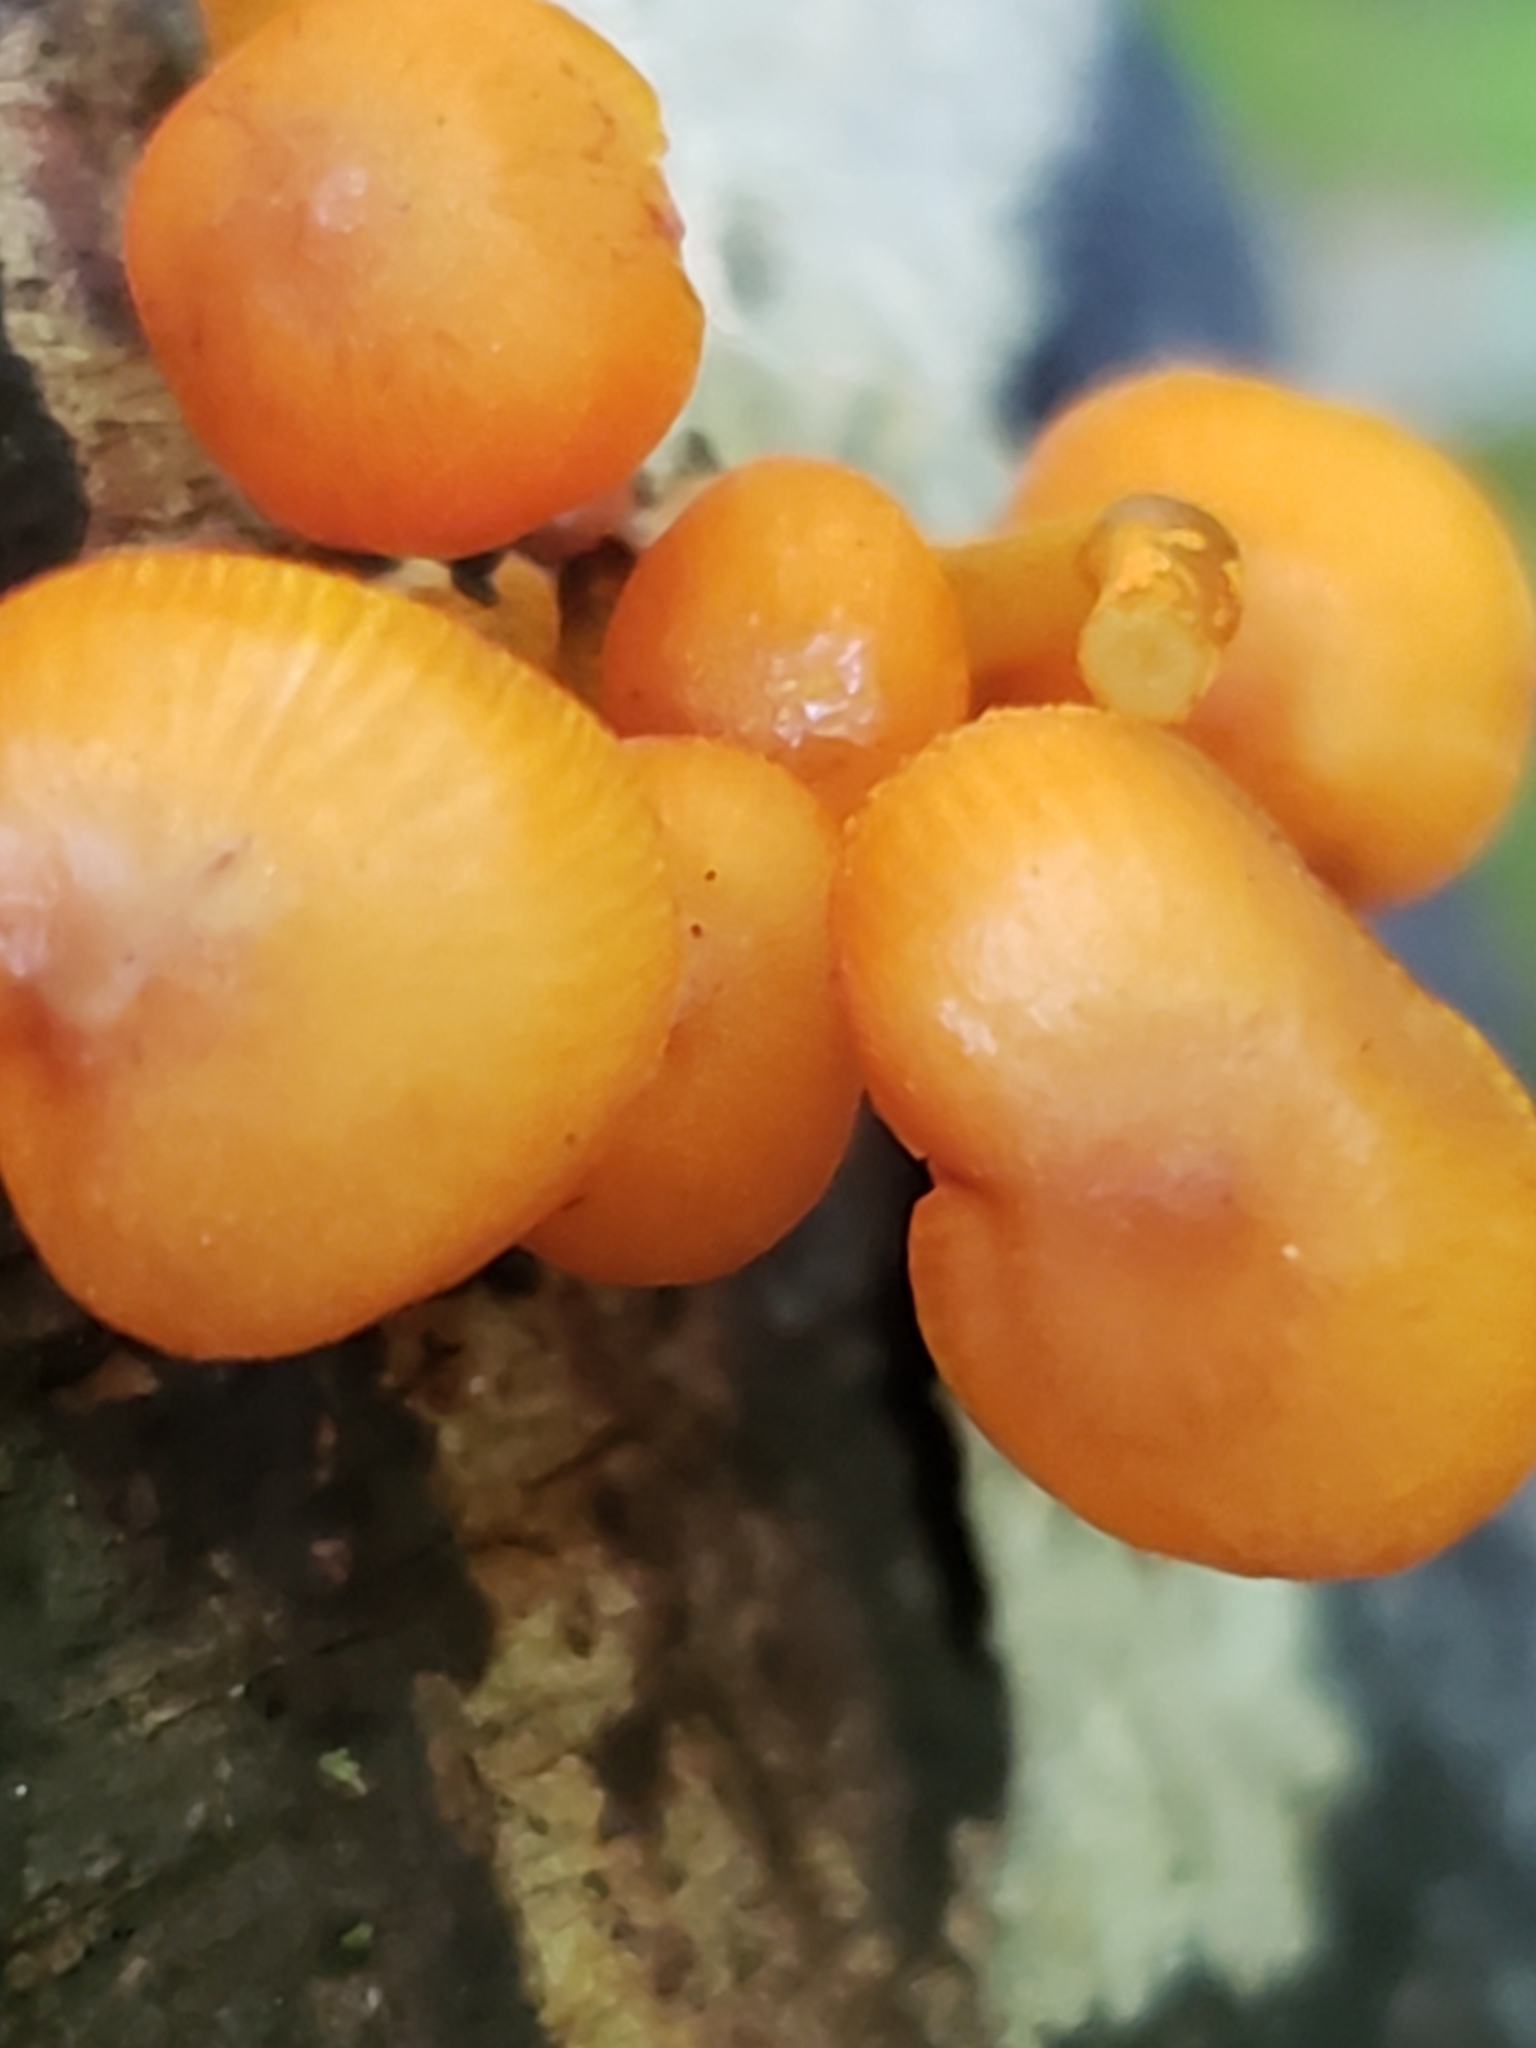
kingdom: Fungi
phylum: Basidiomycota
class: Agaricomycetes
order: Agaricales
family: Mycenaceae
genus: Mycena
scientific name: Mycena leaiana
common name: Orange mycena
